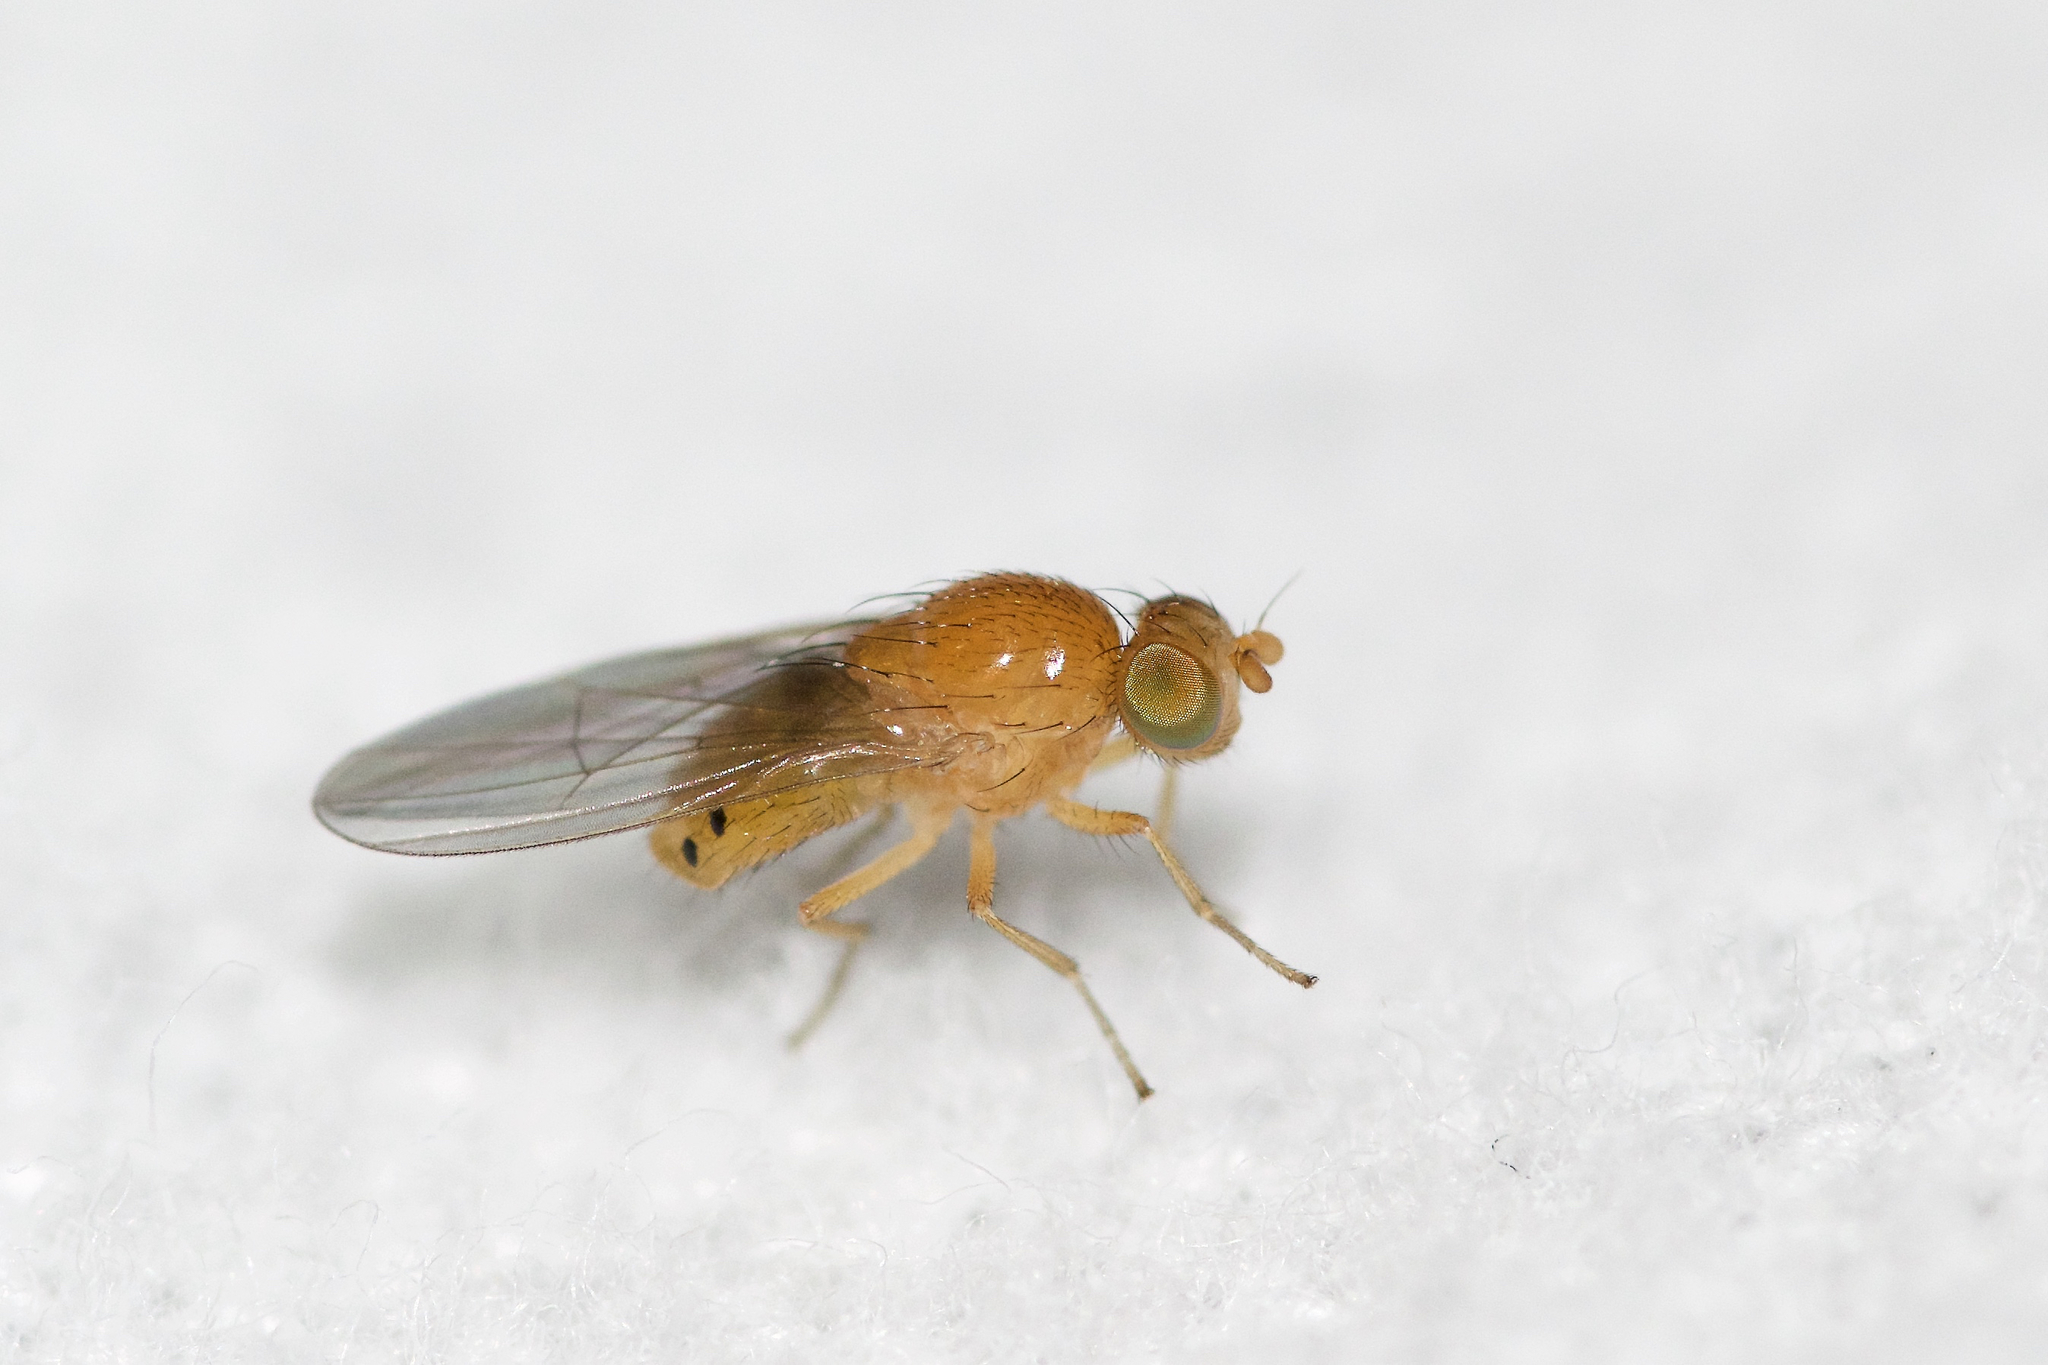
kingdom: Animalia
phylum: Arthropoda
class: Insecta
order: Diptera
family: Lauxaniidae
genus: Sapromyza
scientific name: Sapromyza rotundicornis
